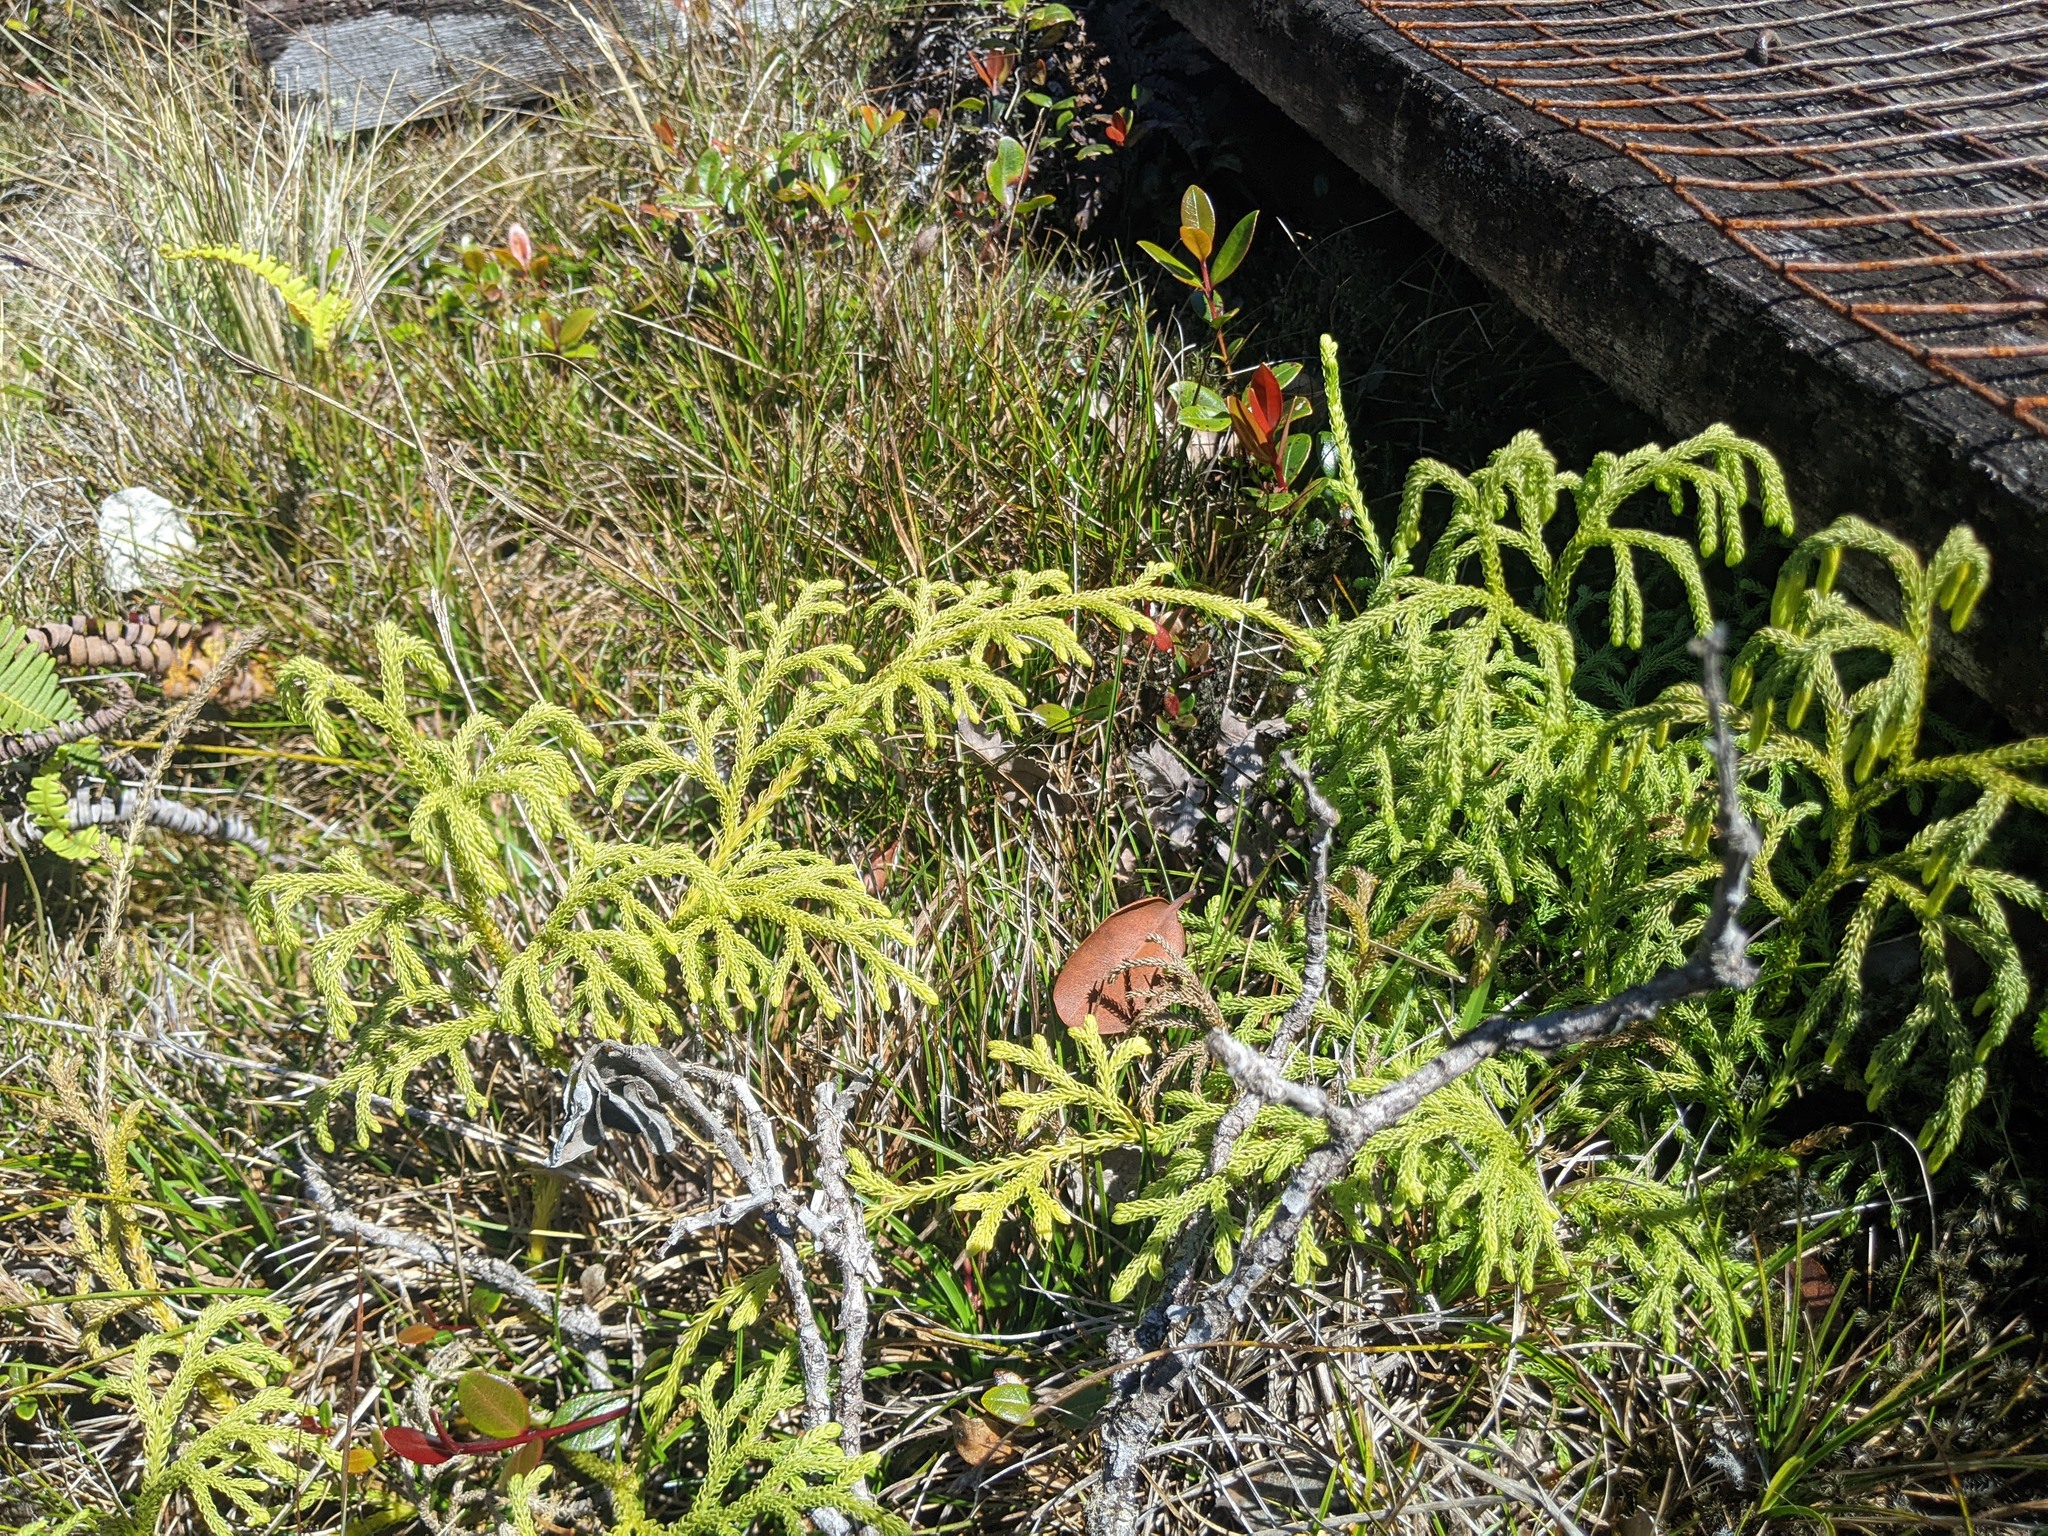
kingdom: Plantae
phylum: Tracheophyta
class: Lycopodiopsida
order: Lycopodiales
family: Lycopodiaceae
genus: Palhinhaea
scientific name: Palhinhaea cernua
